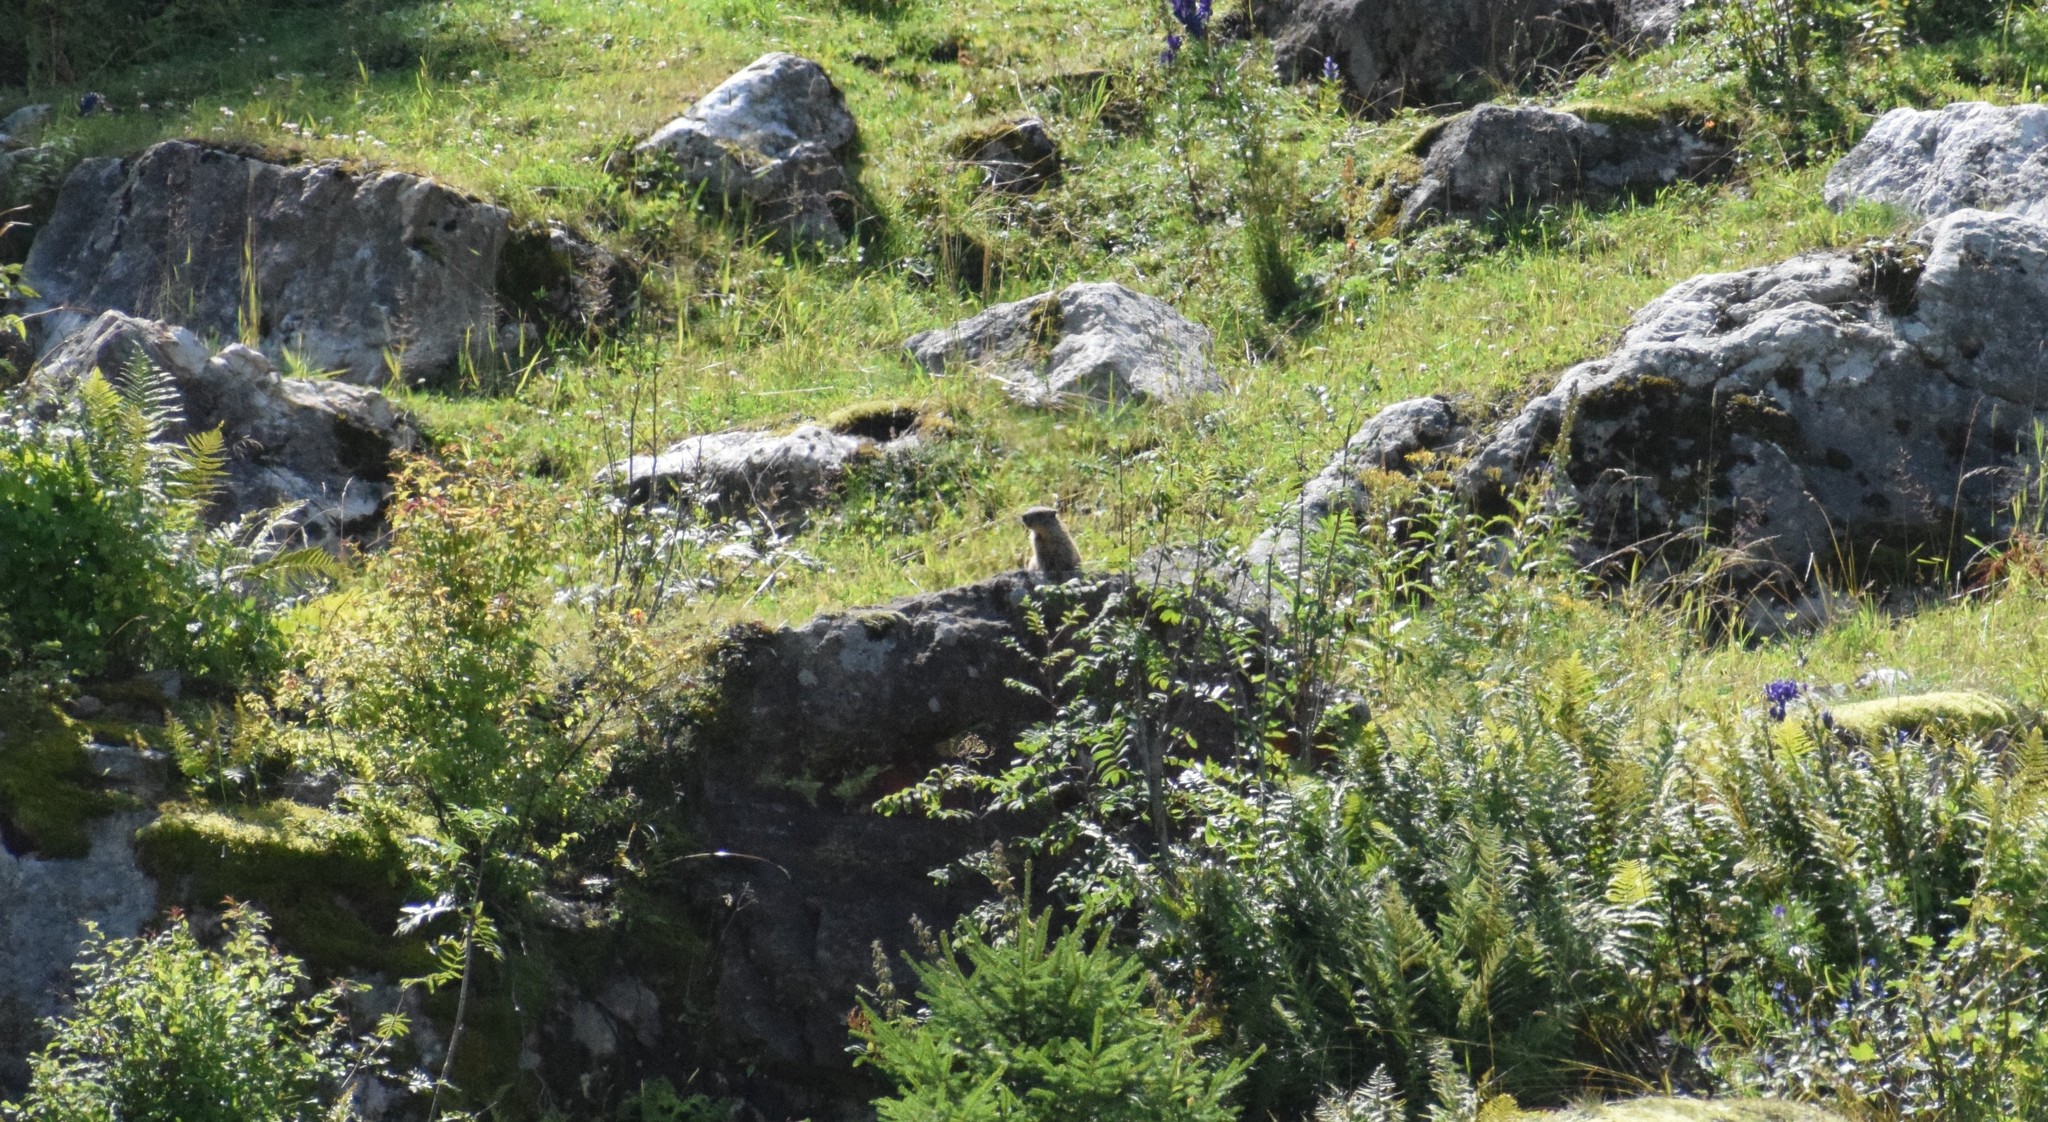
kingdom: Animalia
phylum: Chordata
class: Mammalia
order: Rodentia
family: Sciuridae
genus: Marmota
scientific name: Marmota marmota
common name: Alpine marmot
